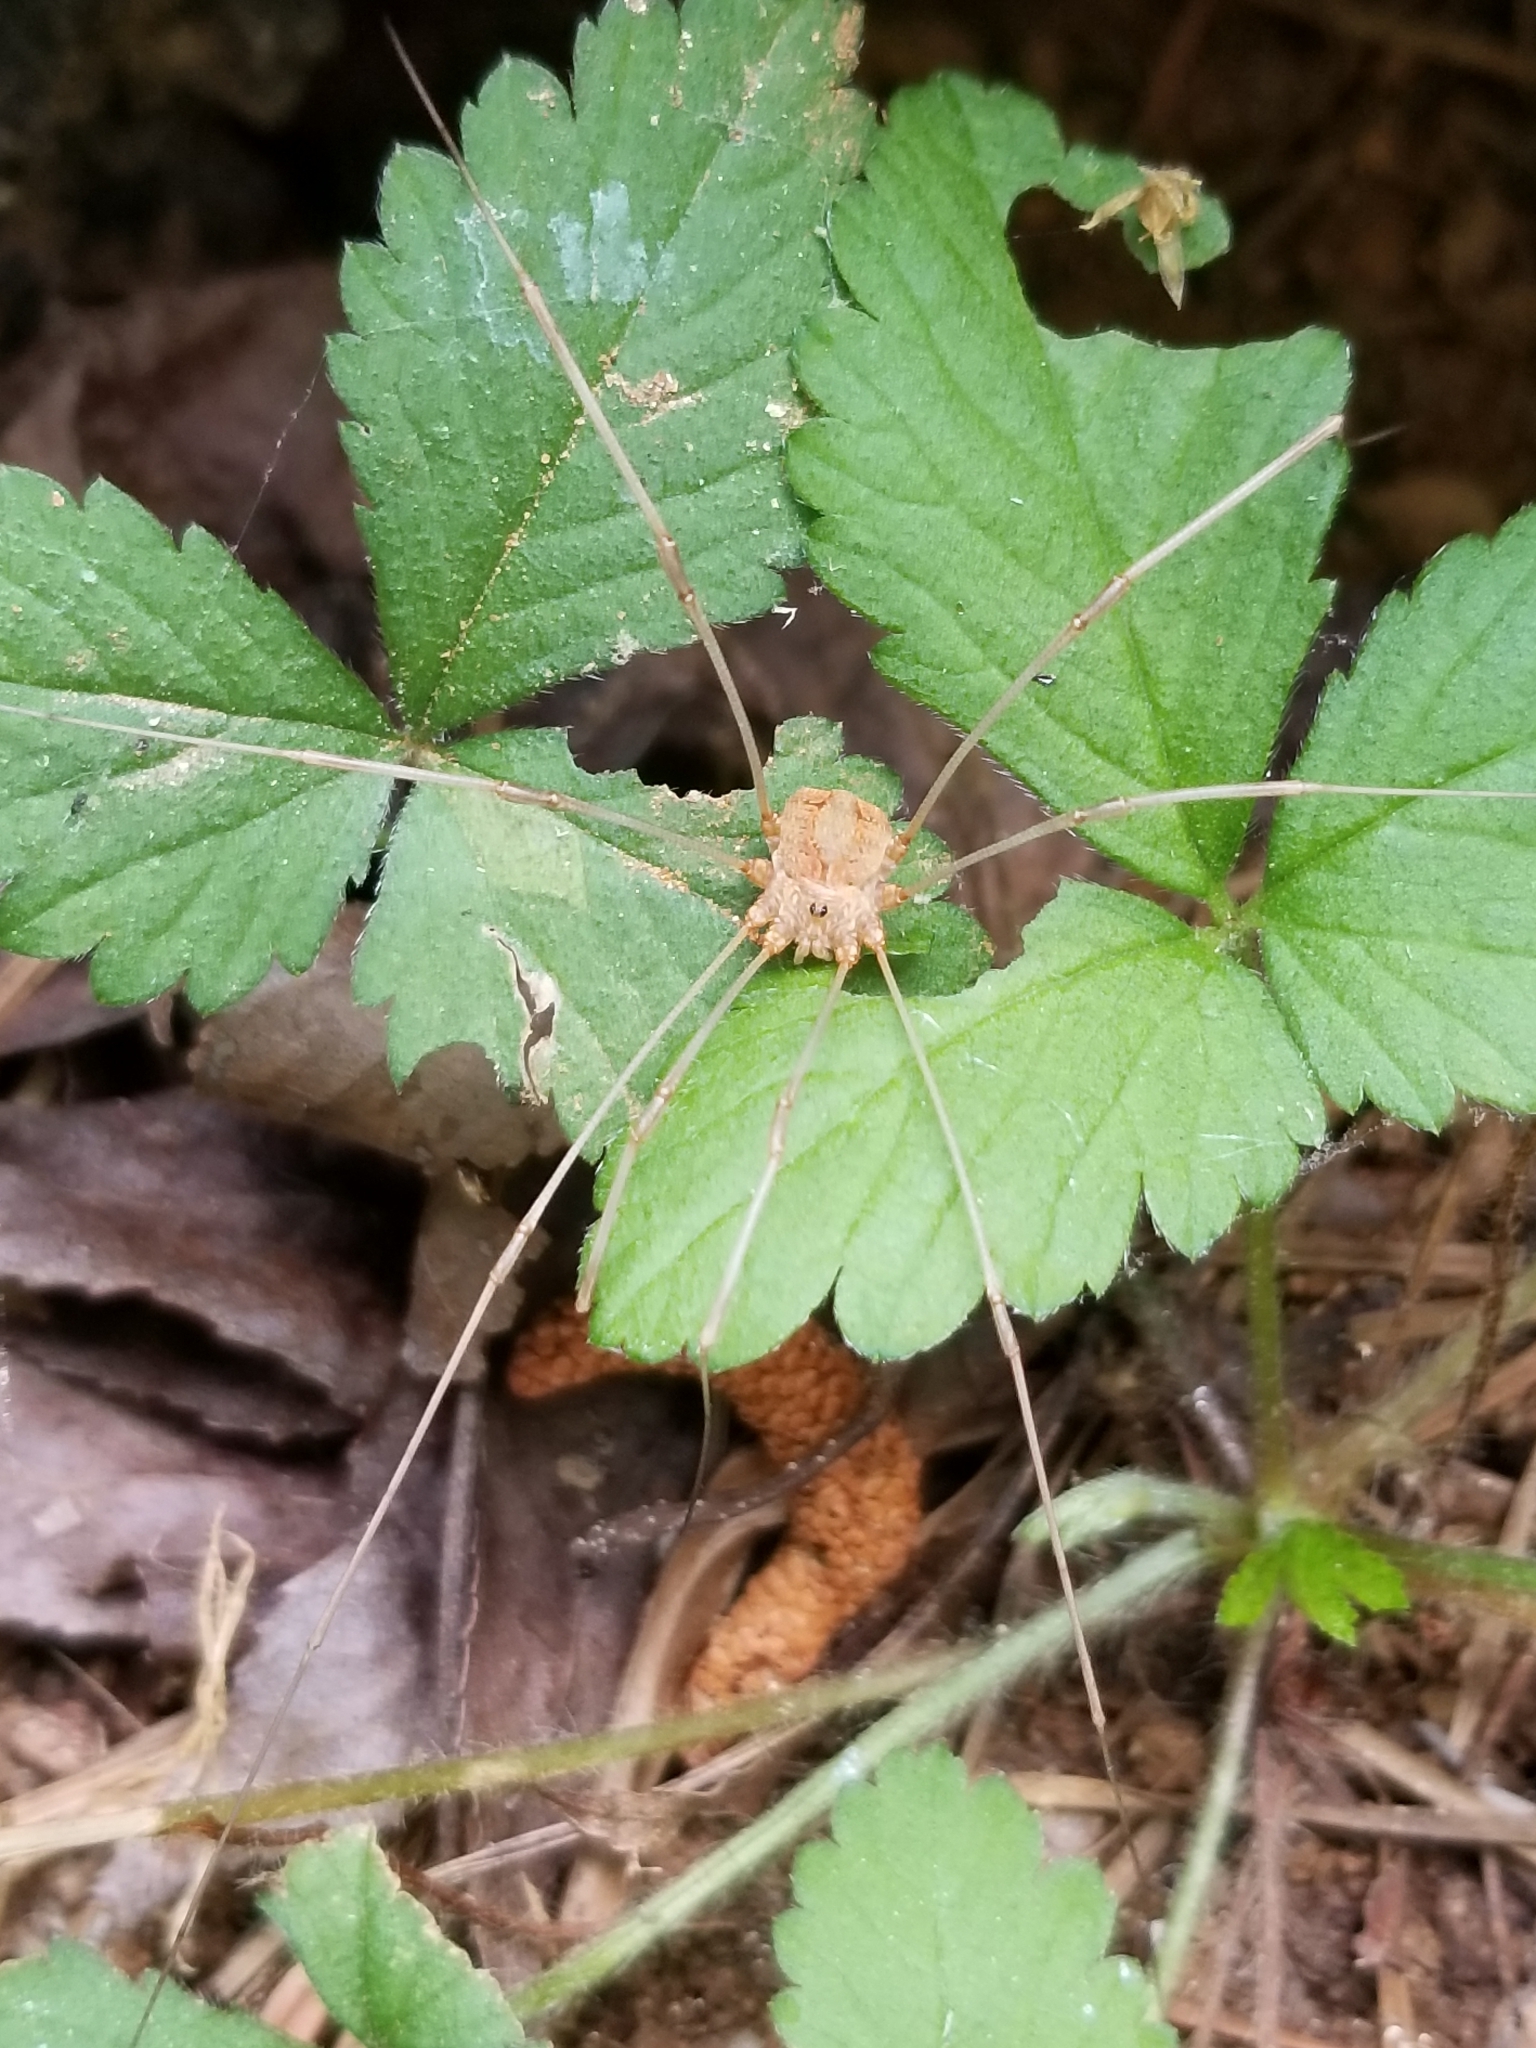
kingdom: Animalia
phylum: Arthropoda
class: Arachnida
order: Opiliones
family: Sclerosomatidae
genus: Leiobunum
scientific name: Leiobunum flavum
